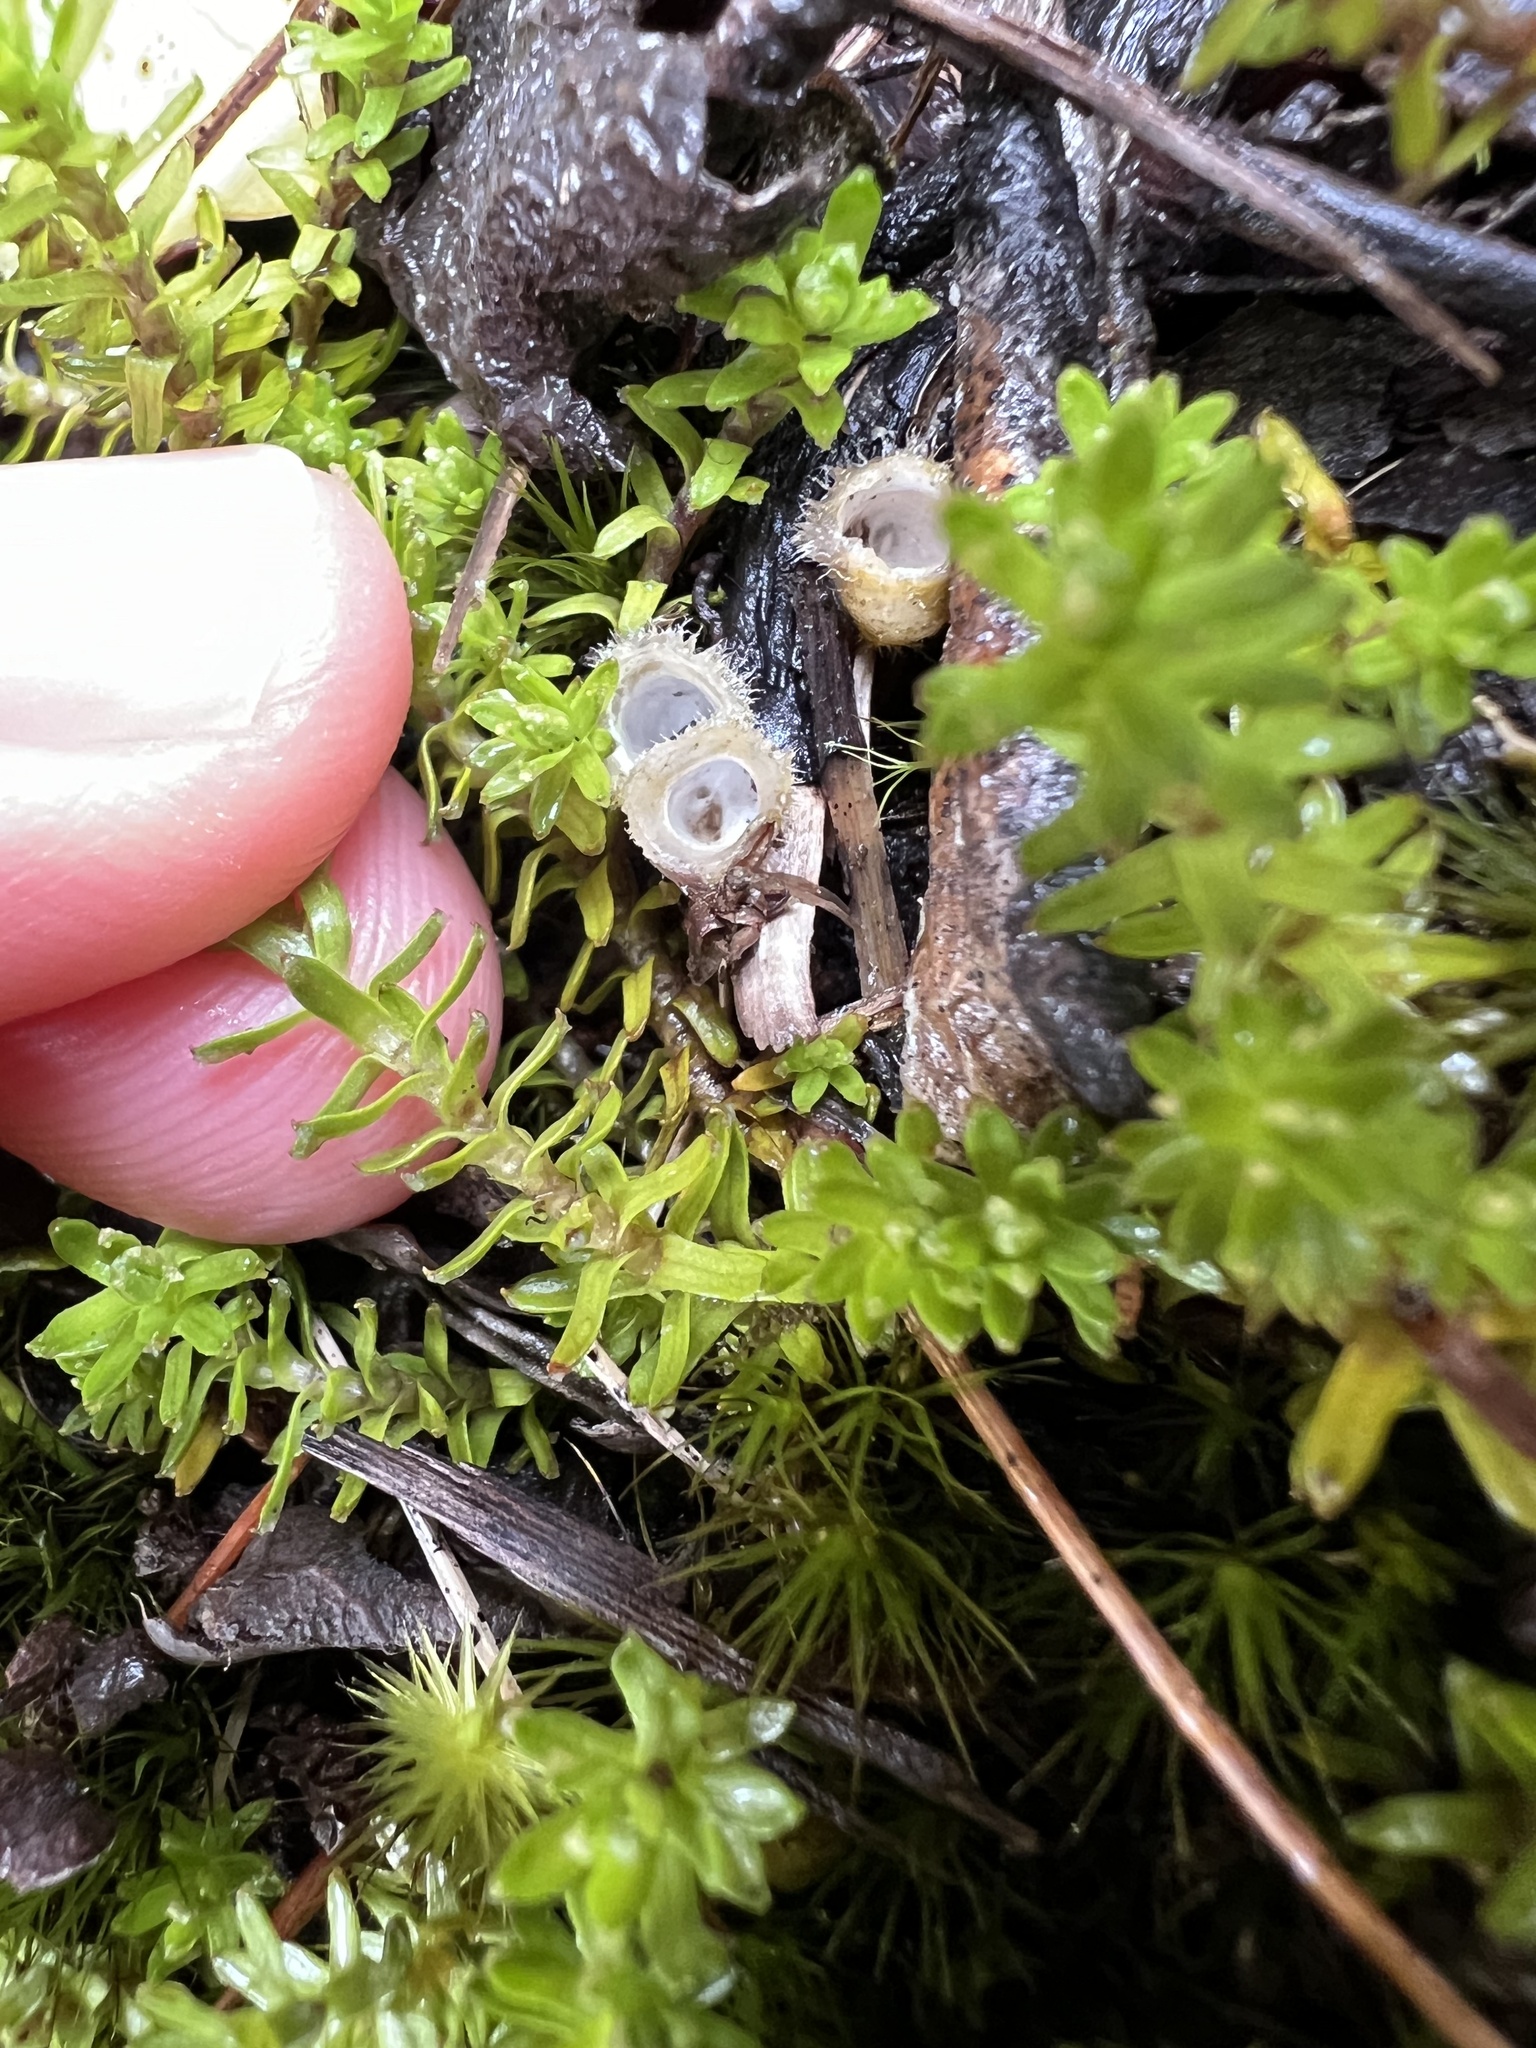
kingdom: Plantae
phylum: Tracheophyta
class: Magnoliopsida
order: Asterales
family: Asteraceae
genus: Raoulia
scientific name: Raoulia glabra
